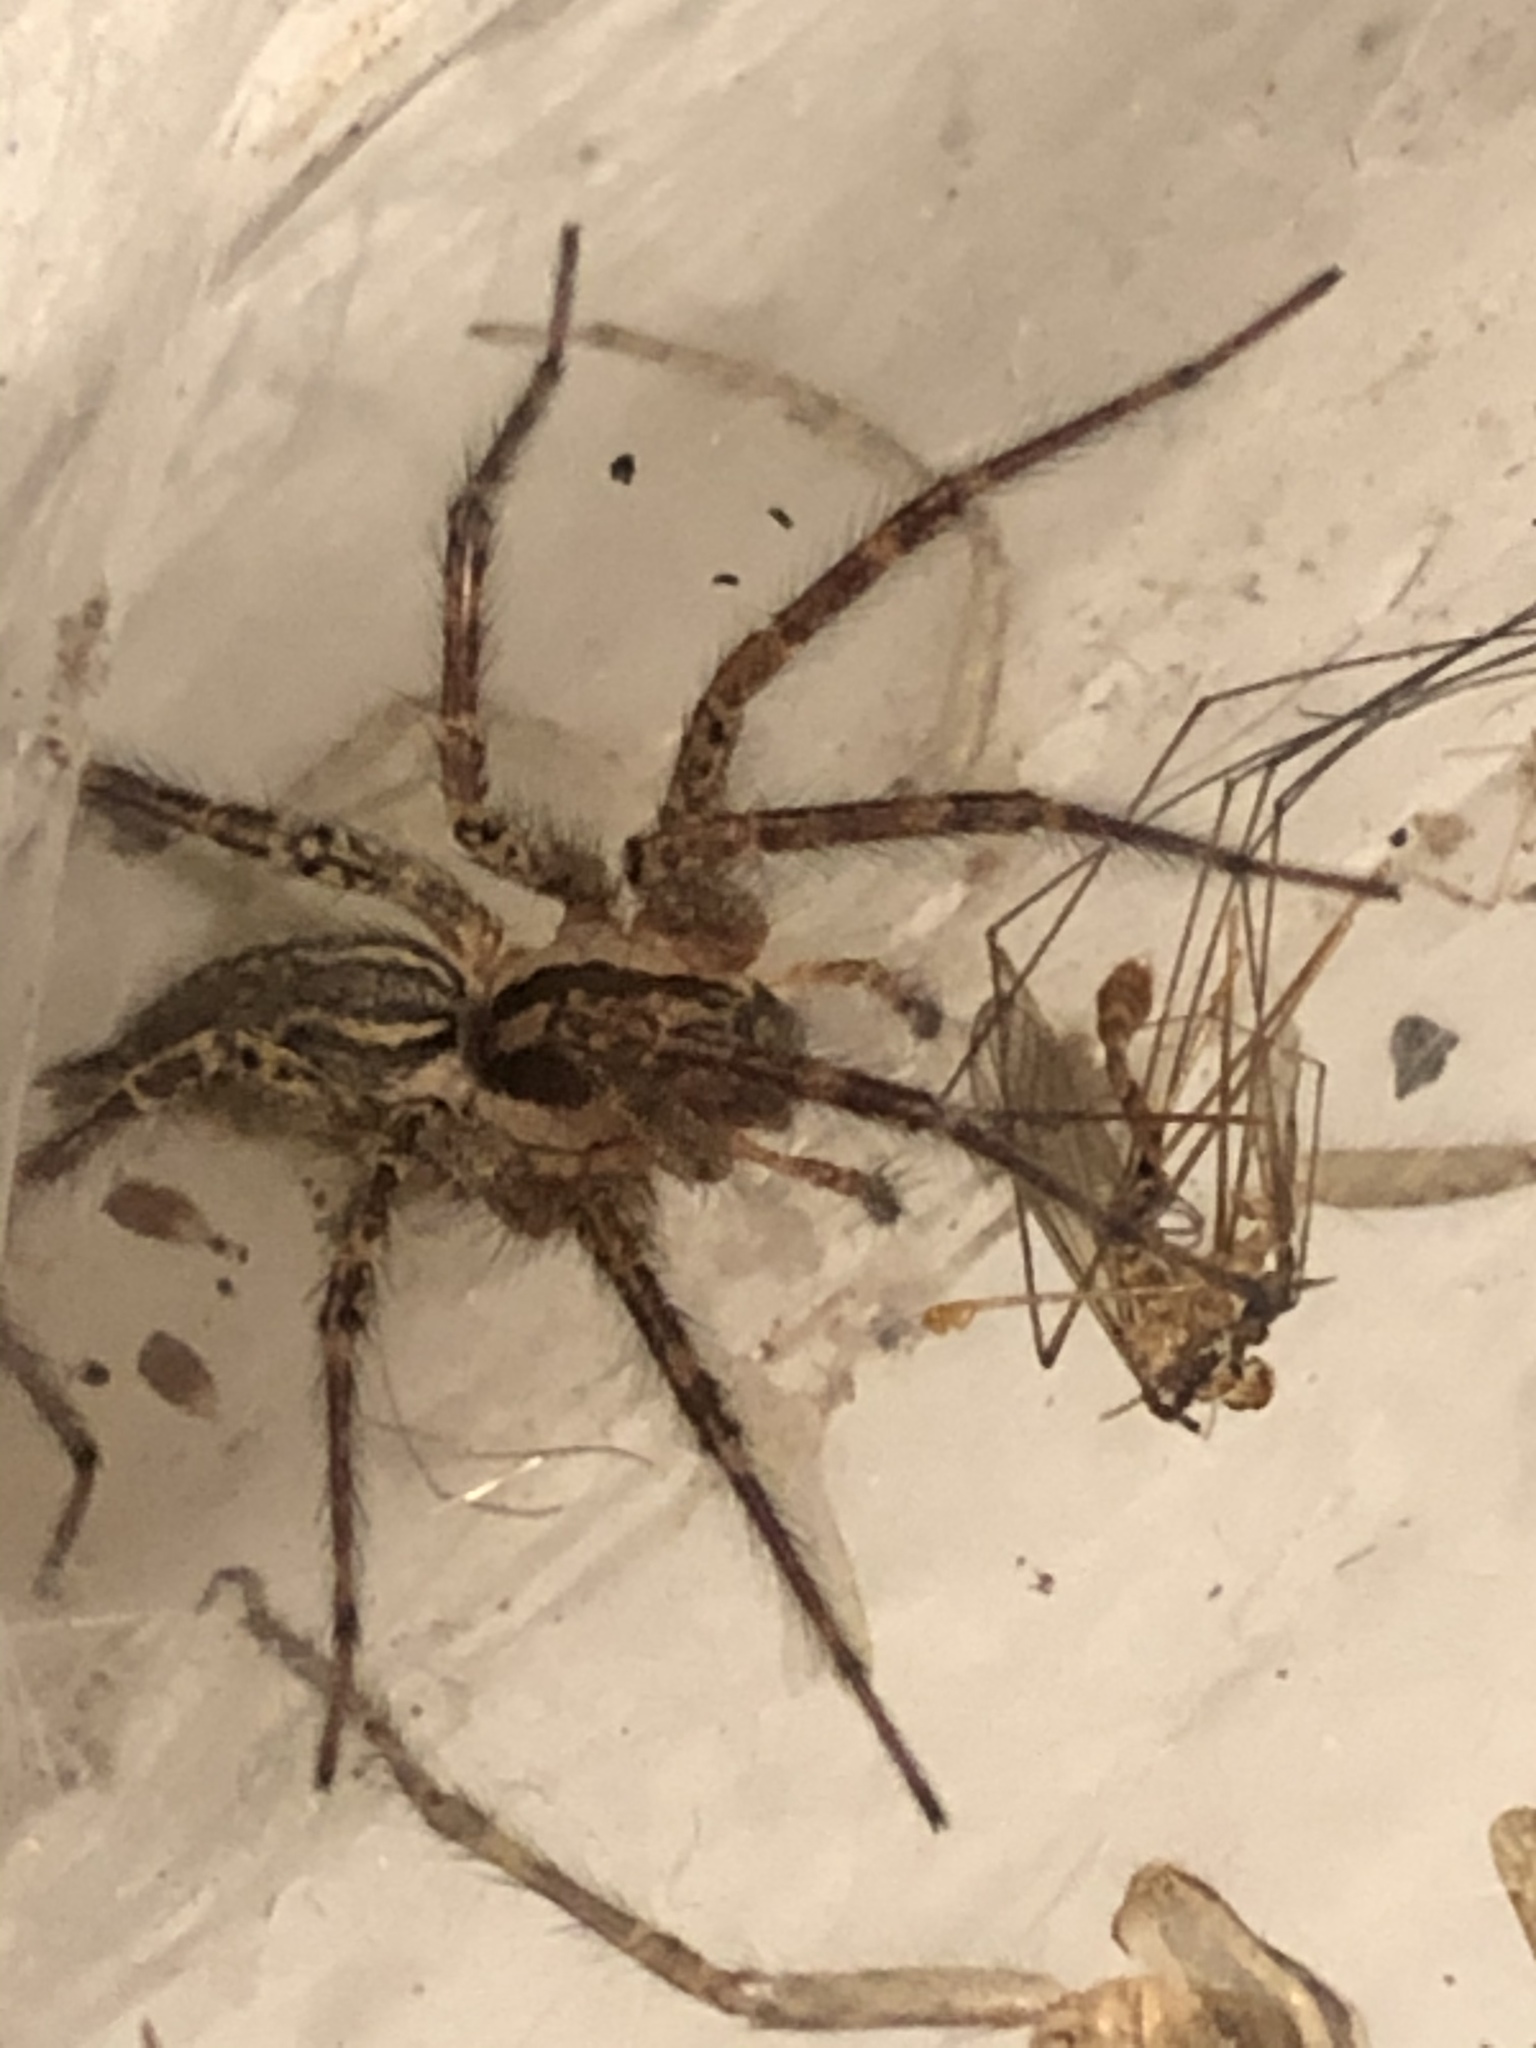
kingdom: Animalia
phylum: Arthropoda
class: Arachnida
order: Araneae
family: Agelenidae
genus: Agelenopsis
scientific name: Agelenopsis
